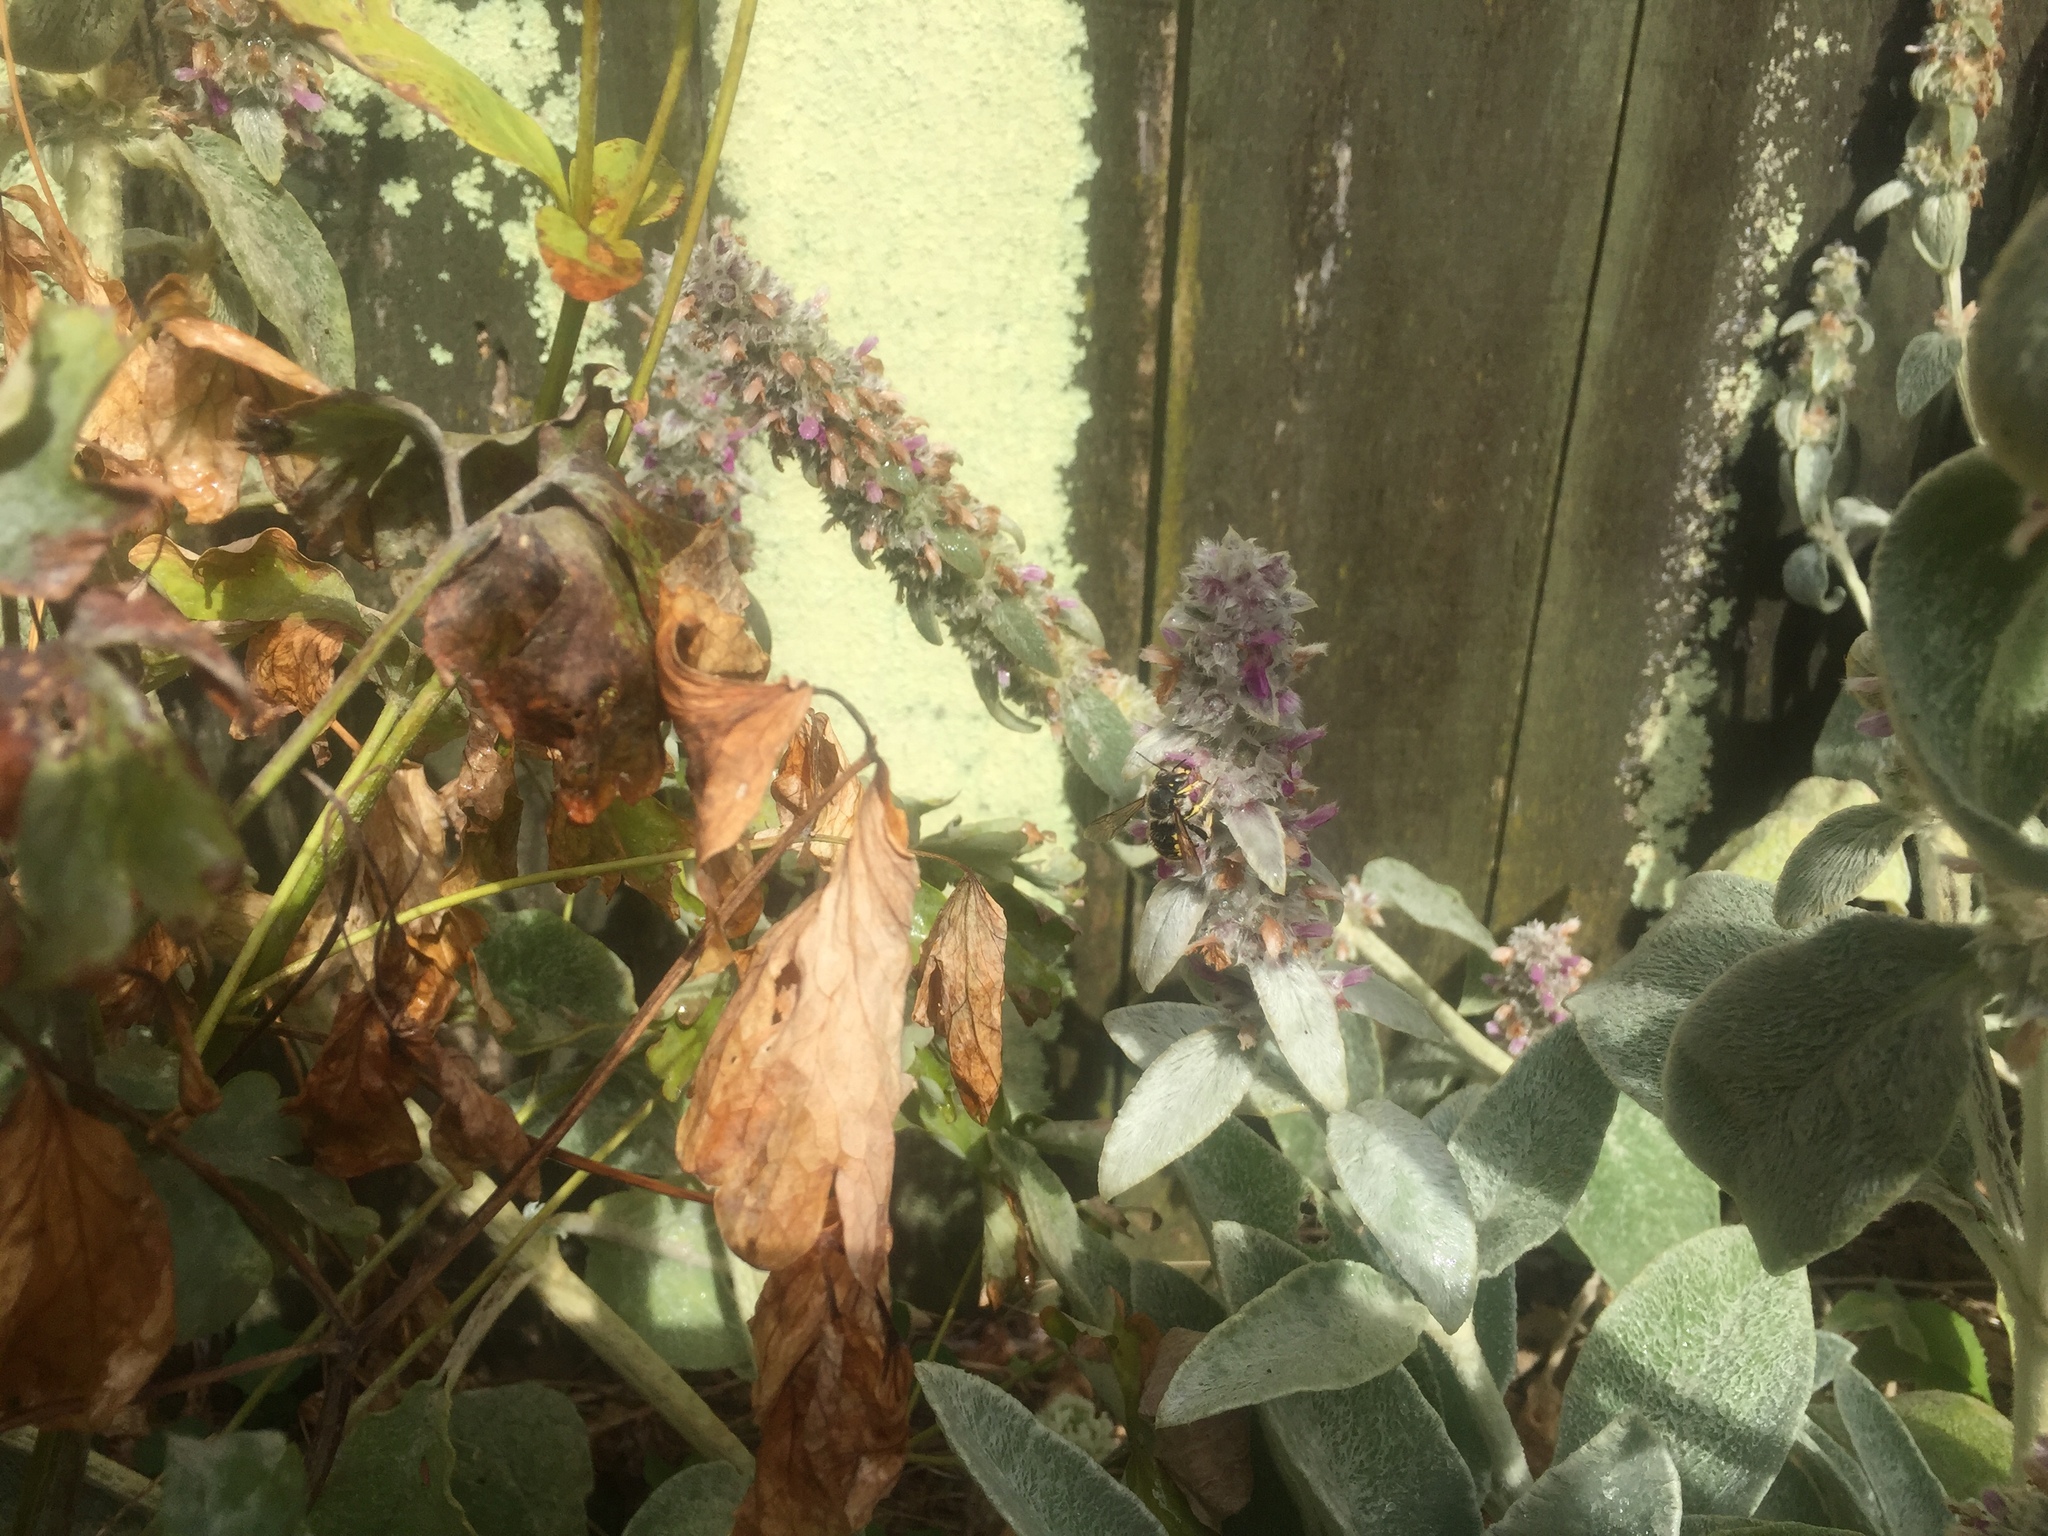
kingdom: Animalia
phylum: Arthropoda
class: Insecta
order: Hymenoptera
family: Megachilidae
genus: Anthidium
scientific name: Anthidium manicatum
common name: Wool carder bee
